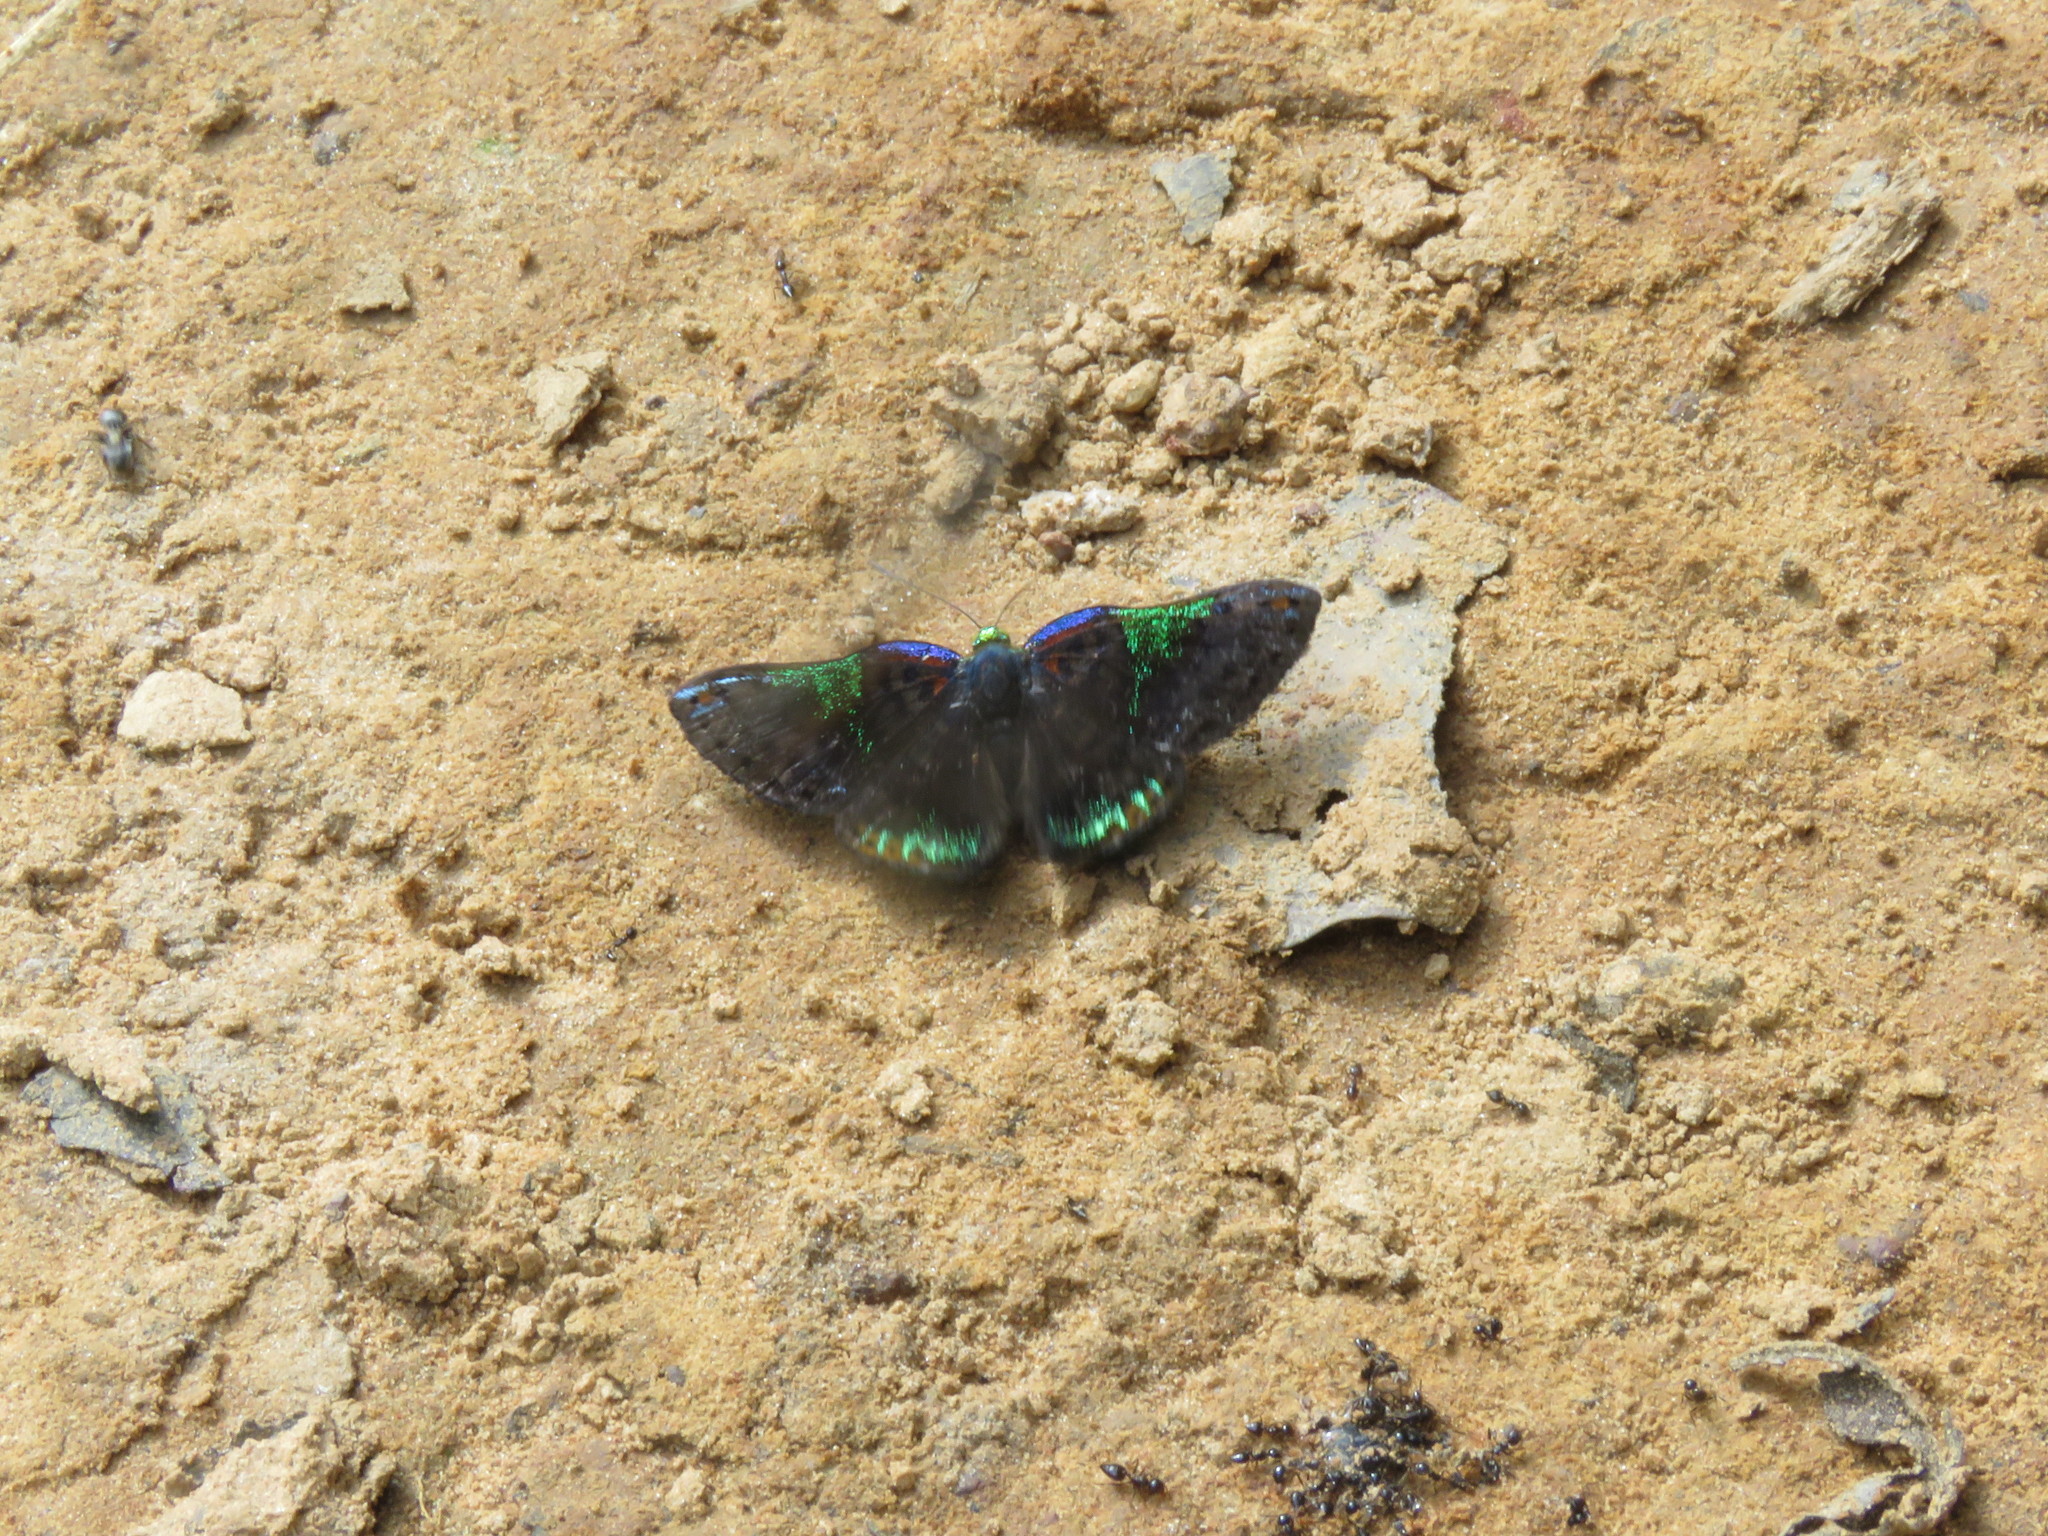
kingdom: Animalia
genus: Caria
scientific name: Caria trochilus
